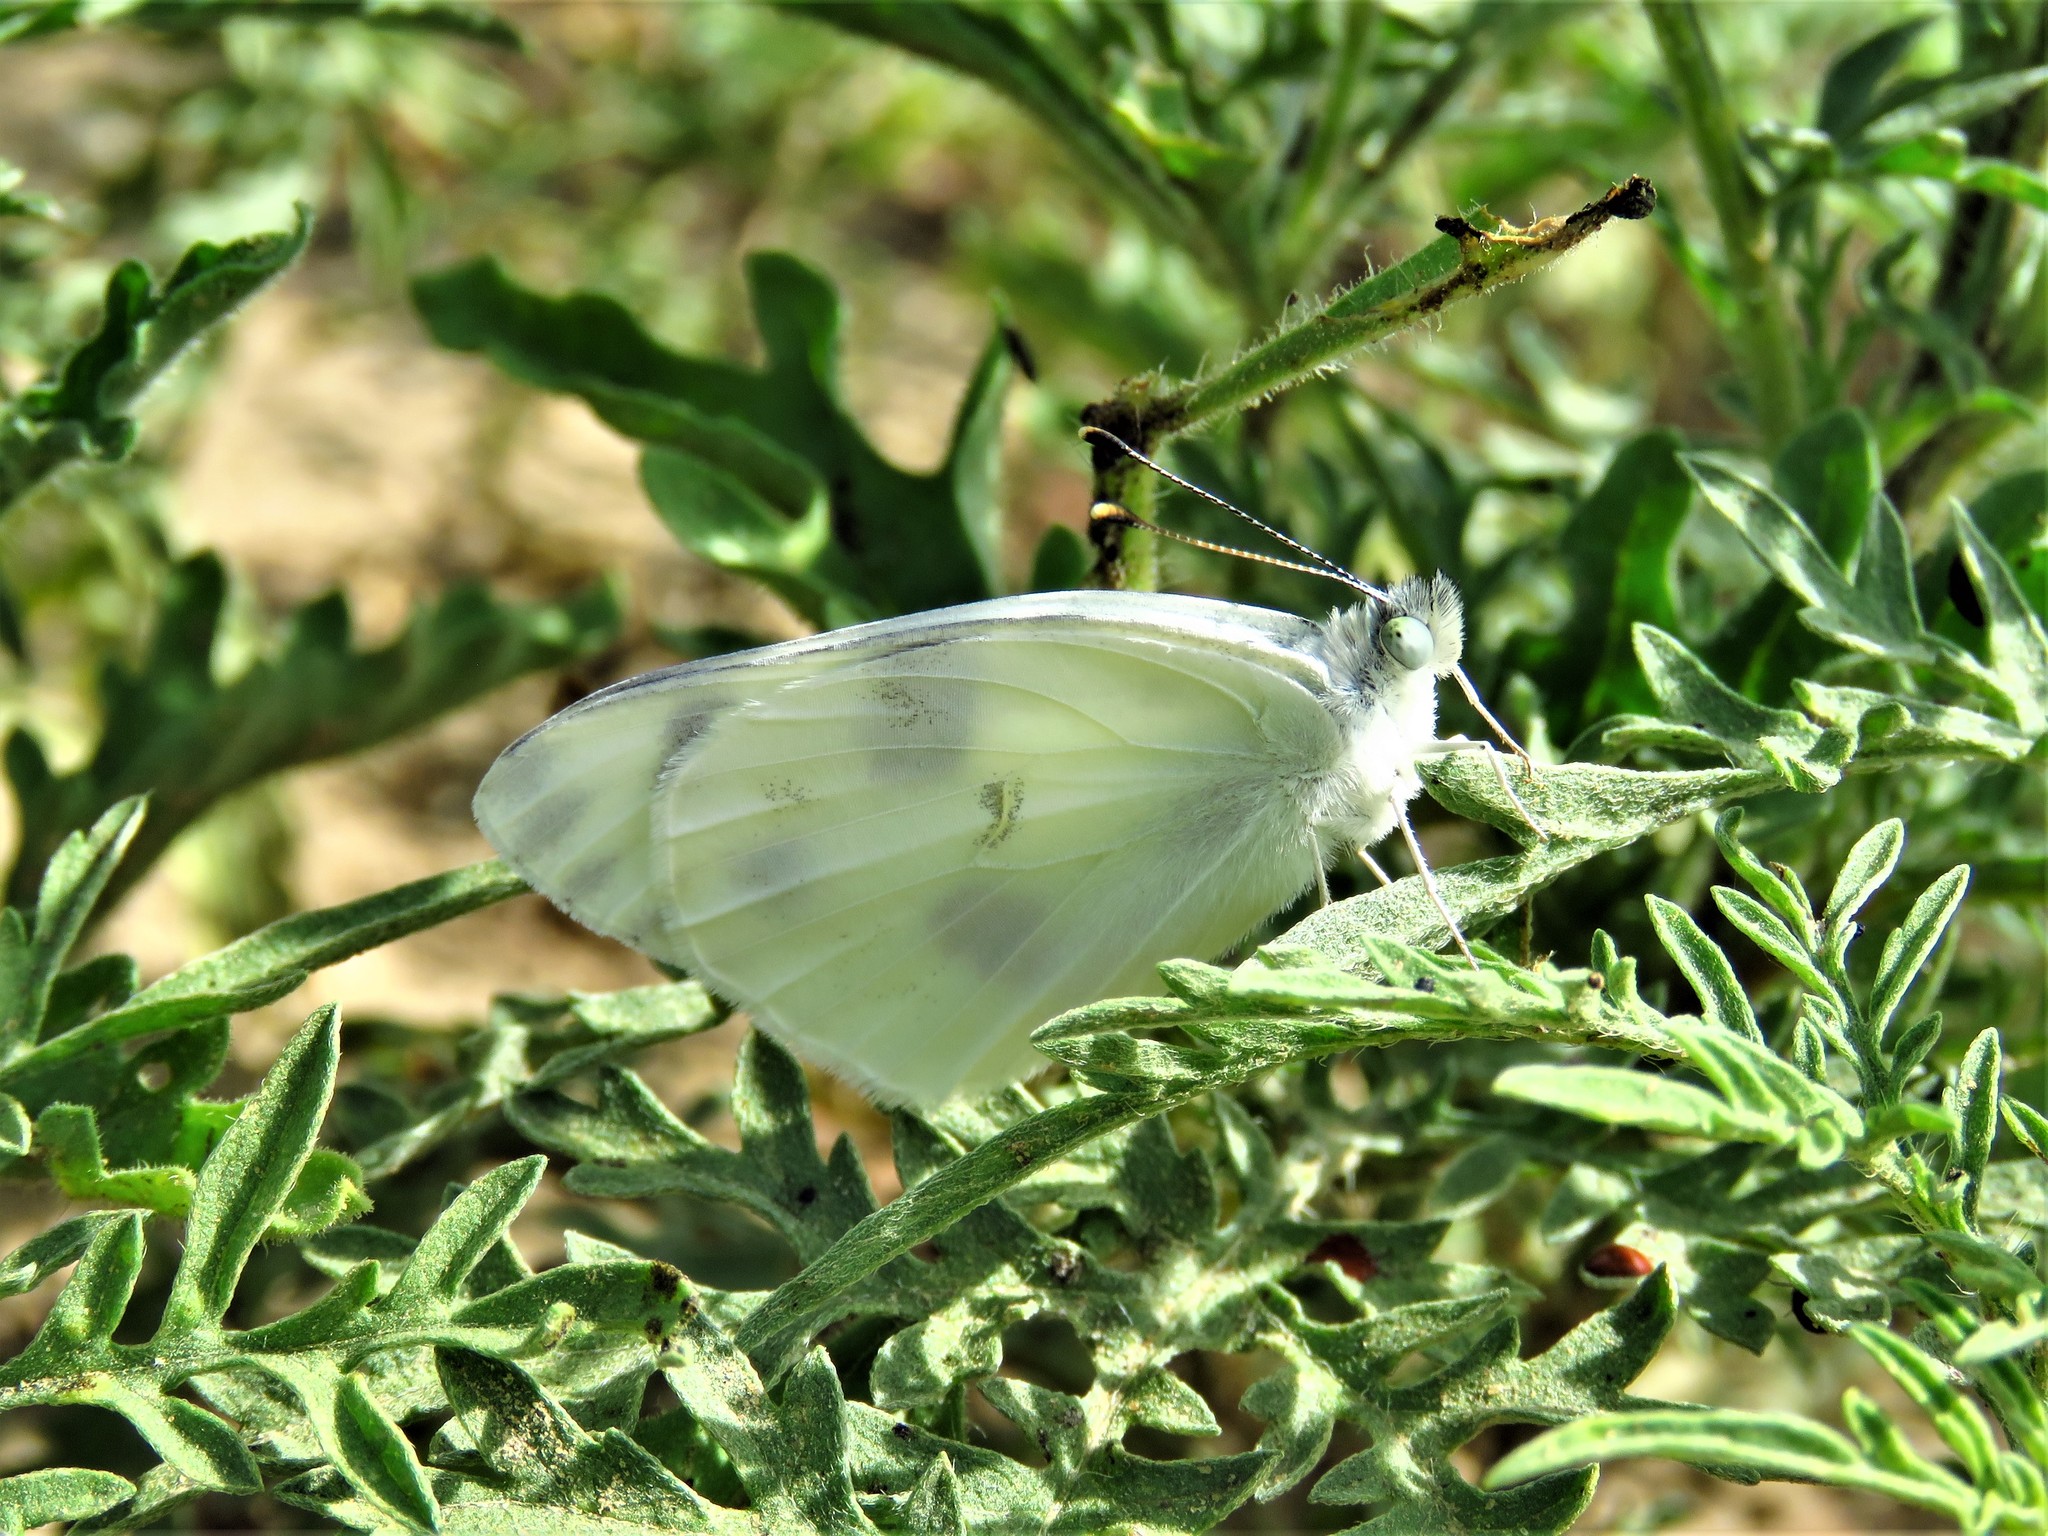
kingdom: Animalia
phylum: Arthropoda
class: Insecta
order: Lepidoptera
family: Pieridae
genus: Pontia
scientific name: Pontia protodice
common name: Checkered white
